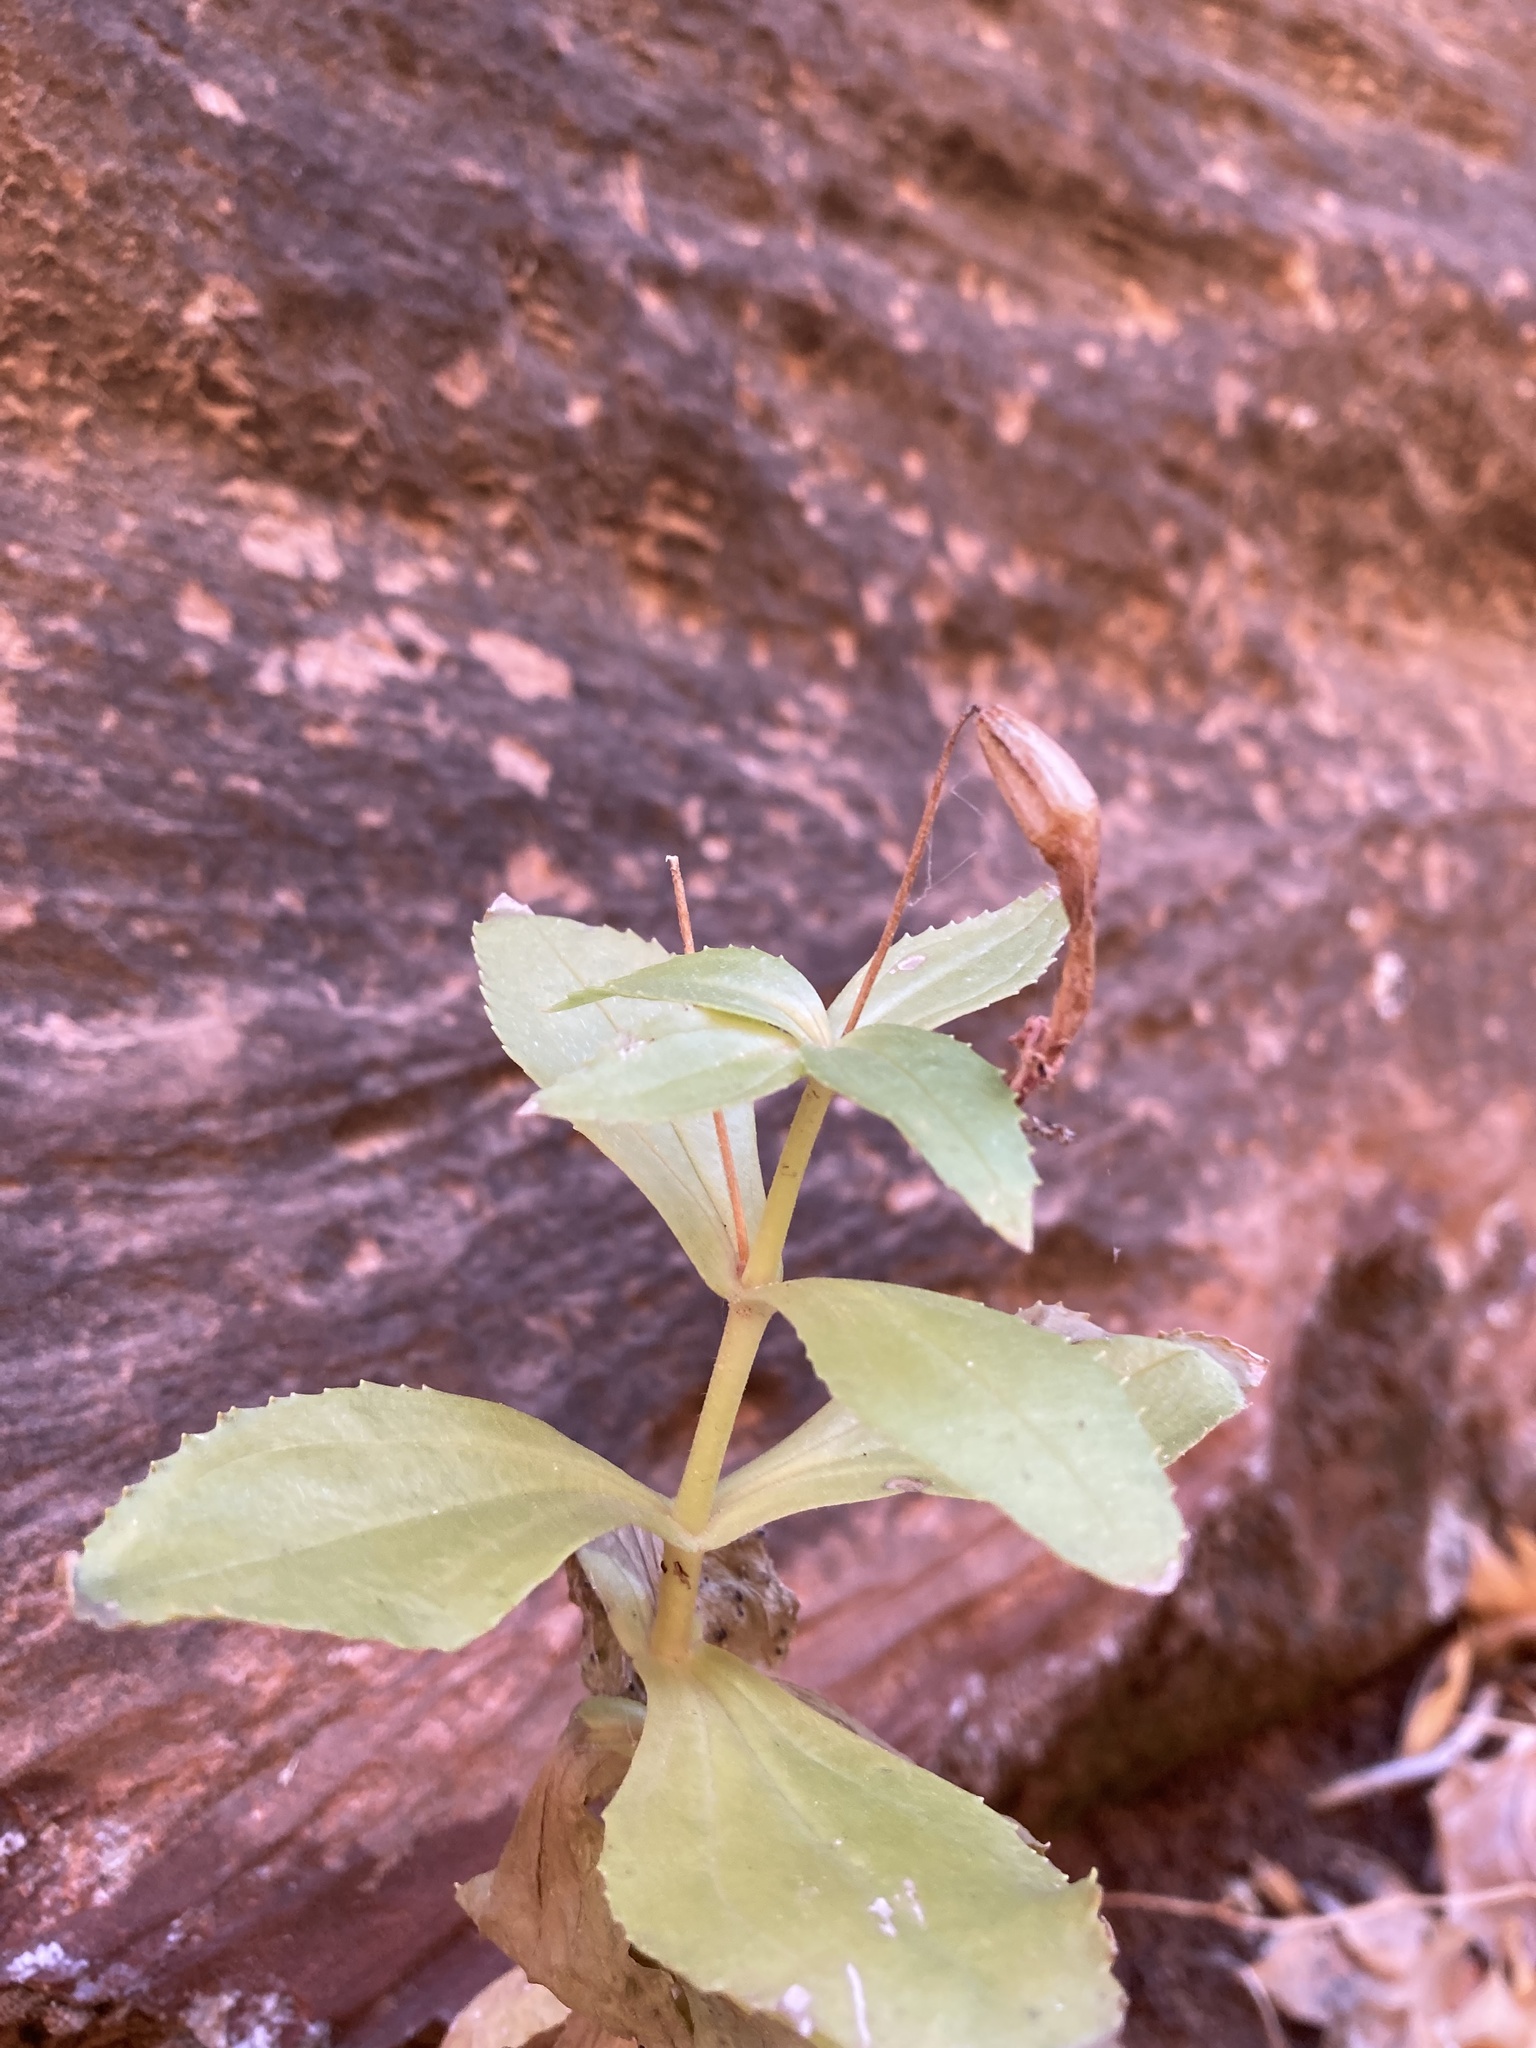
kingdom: Plantae
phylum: Tracheophyta
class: Magnoliopsida
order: Lamiales
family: Phrymaceae
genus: Erythranthe
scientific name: Erythranthe verbenacea
